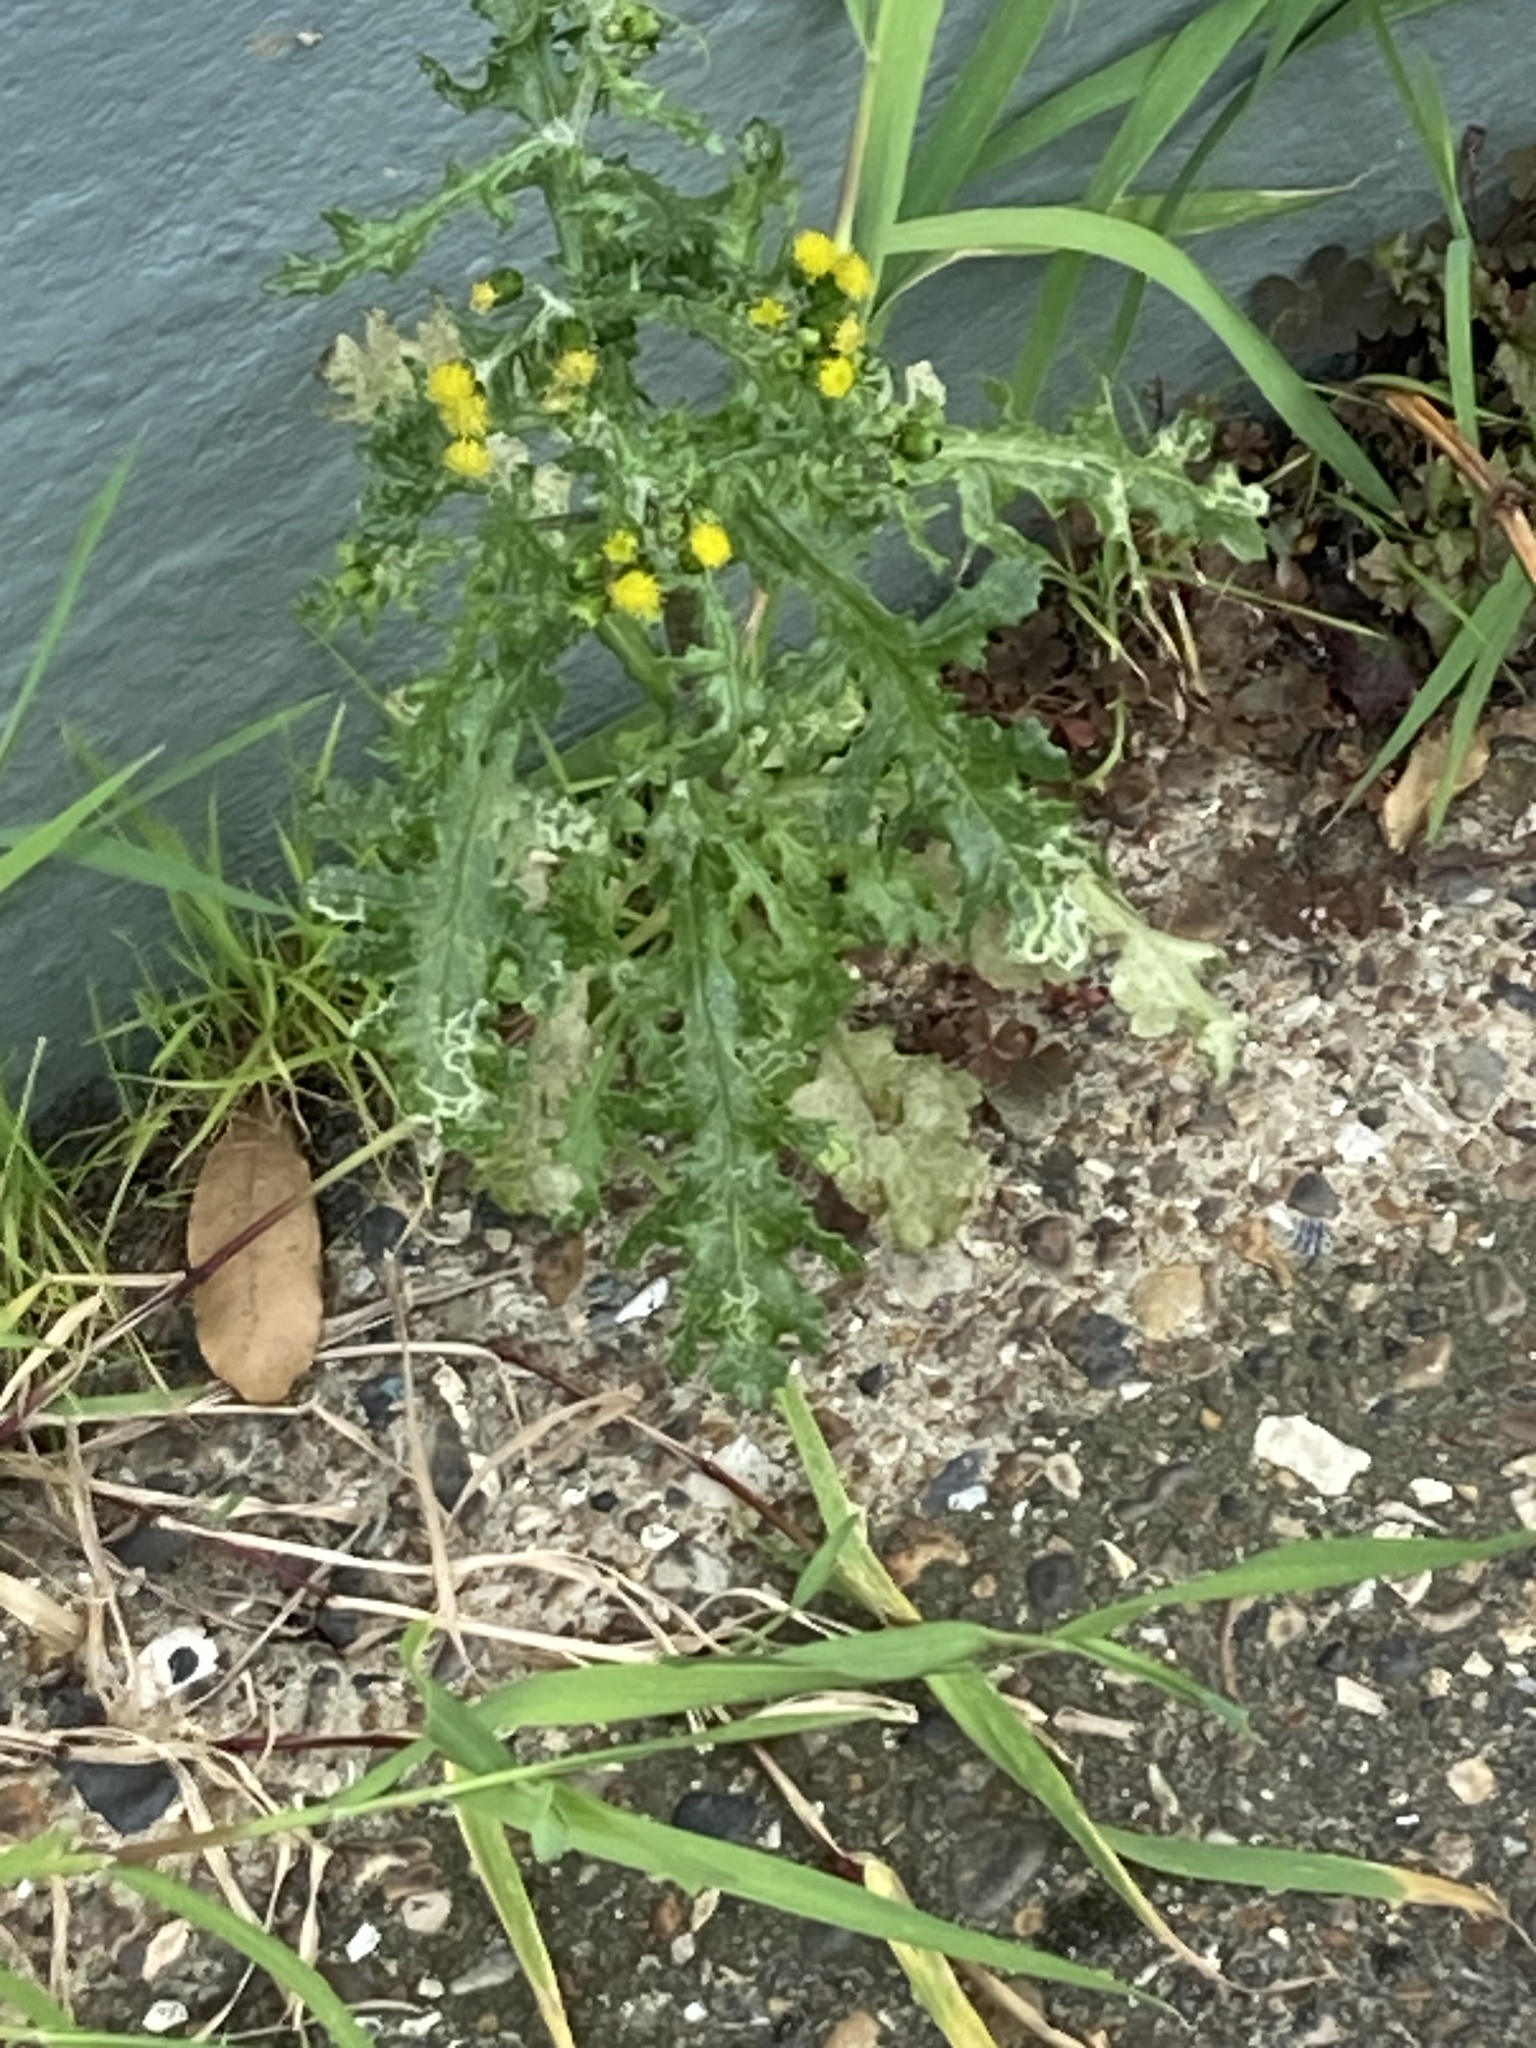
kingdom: Plantae
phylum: Tracheophyta
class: Magnoliopsida
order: Asterales
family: Asteraceae
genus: Senecio
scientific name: Senecio vulgaris
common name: Old-man-in-the-spring
